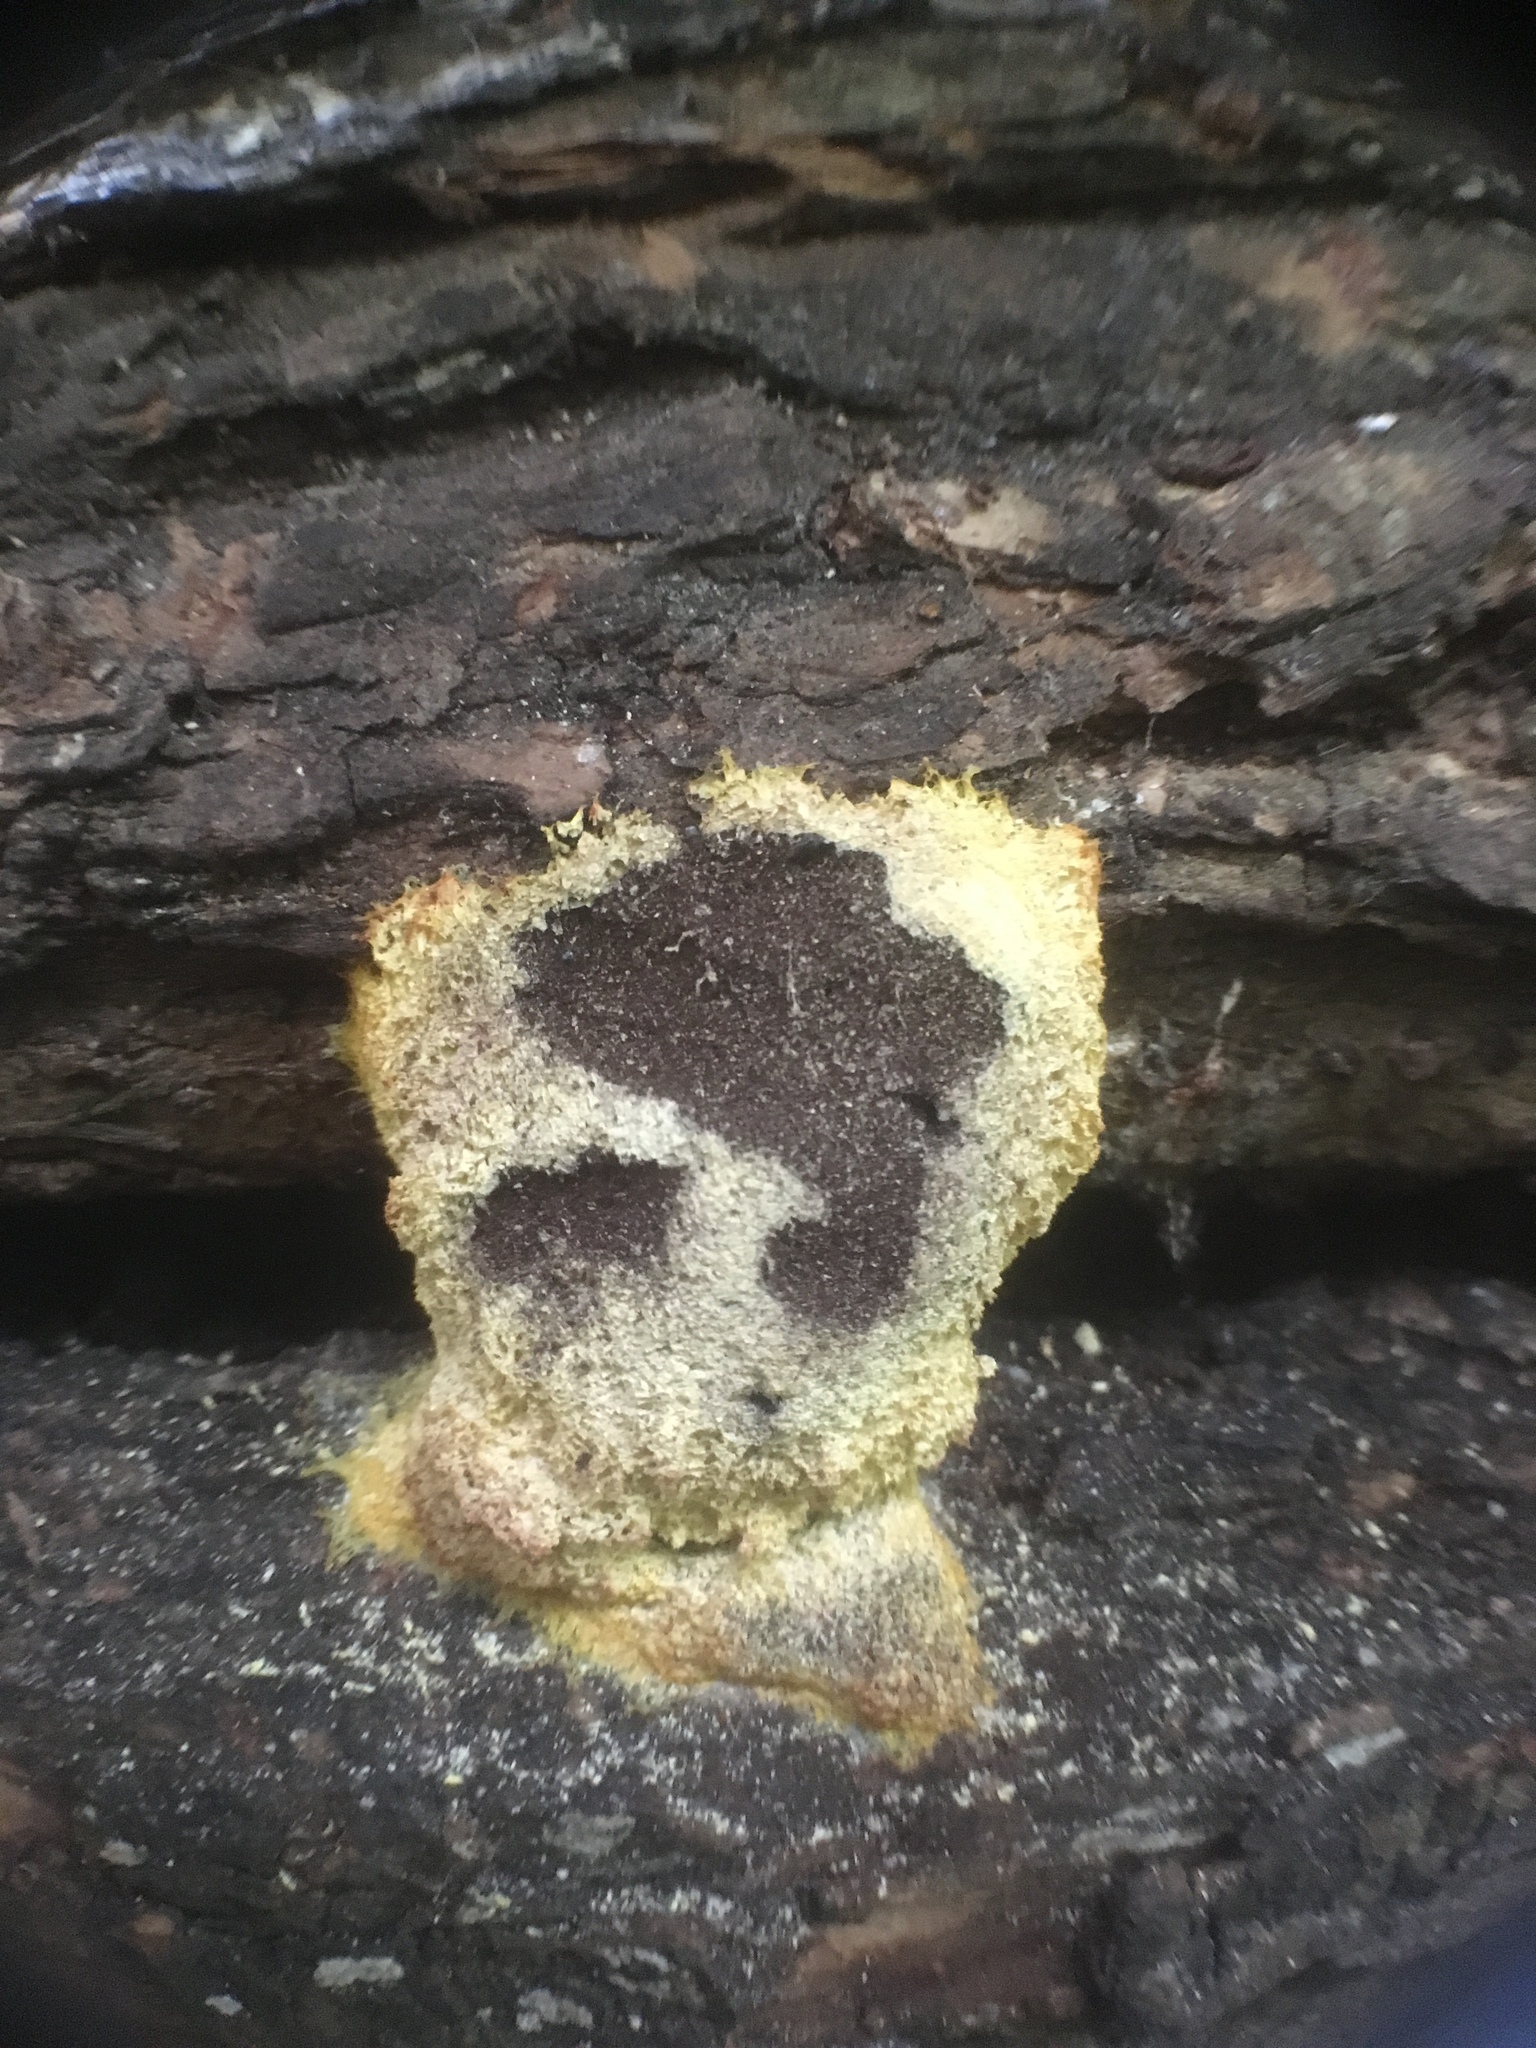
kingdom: Protozoa
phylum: Mycetozoa
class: Myxomycetes
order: Physarales
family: Physaraceae
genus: Fuligo
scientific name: Fuligo septica
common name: Dog vomit slime mold
